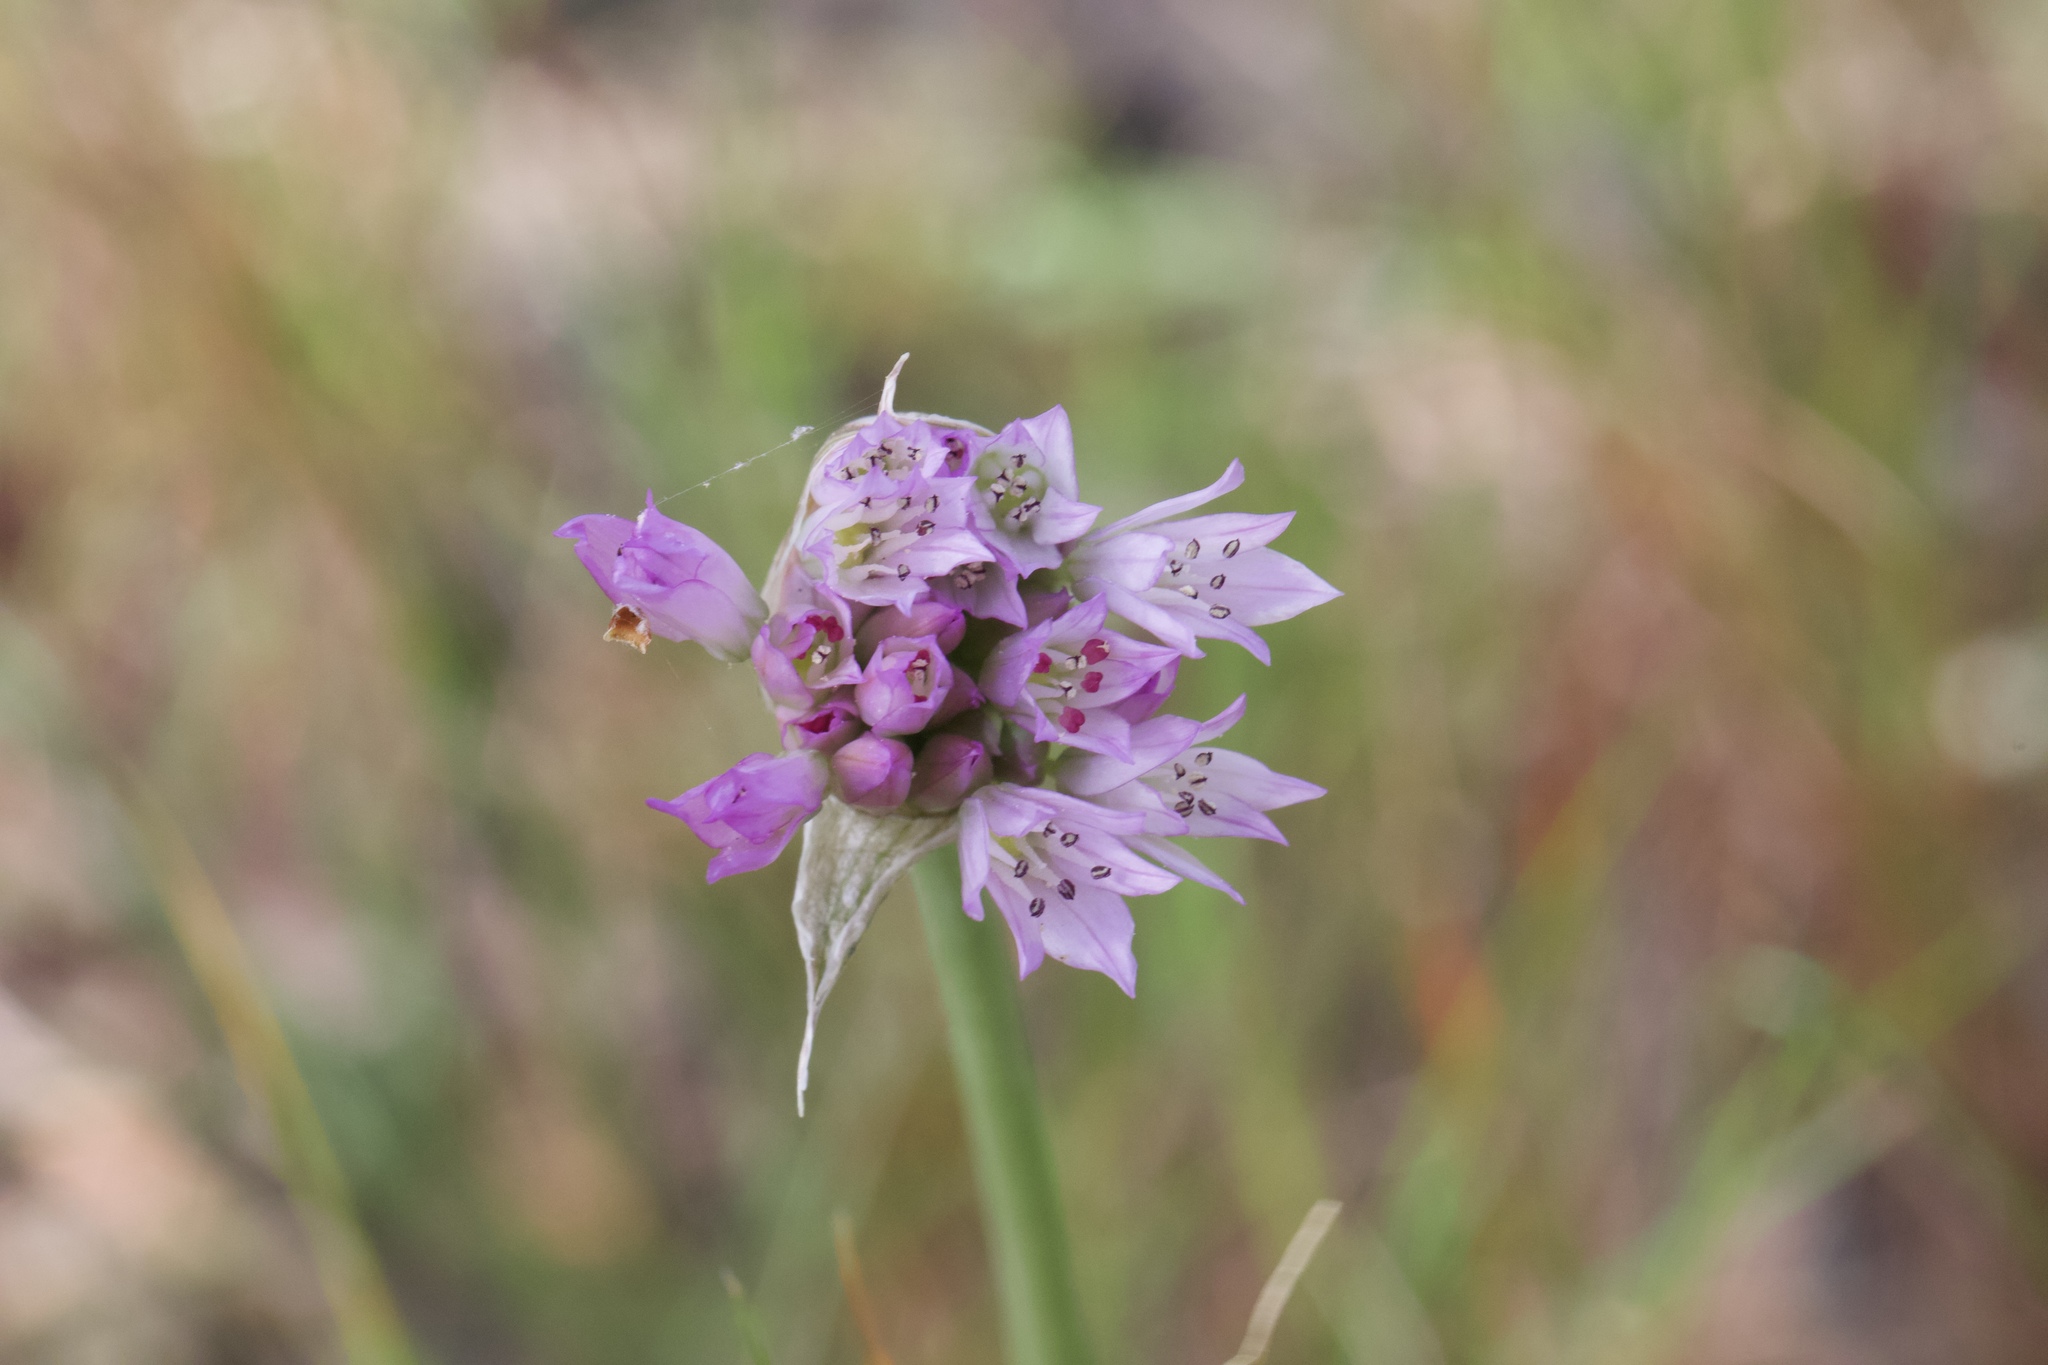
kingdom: Plantae
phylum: Tracheophyta
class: Liliopsida
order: Asparagales
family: Amaryllidaceae
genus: Allium
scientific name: Allium serra
